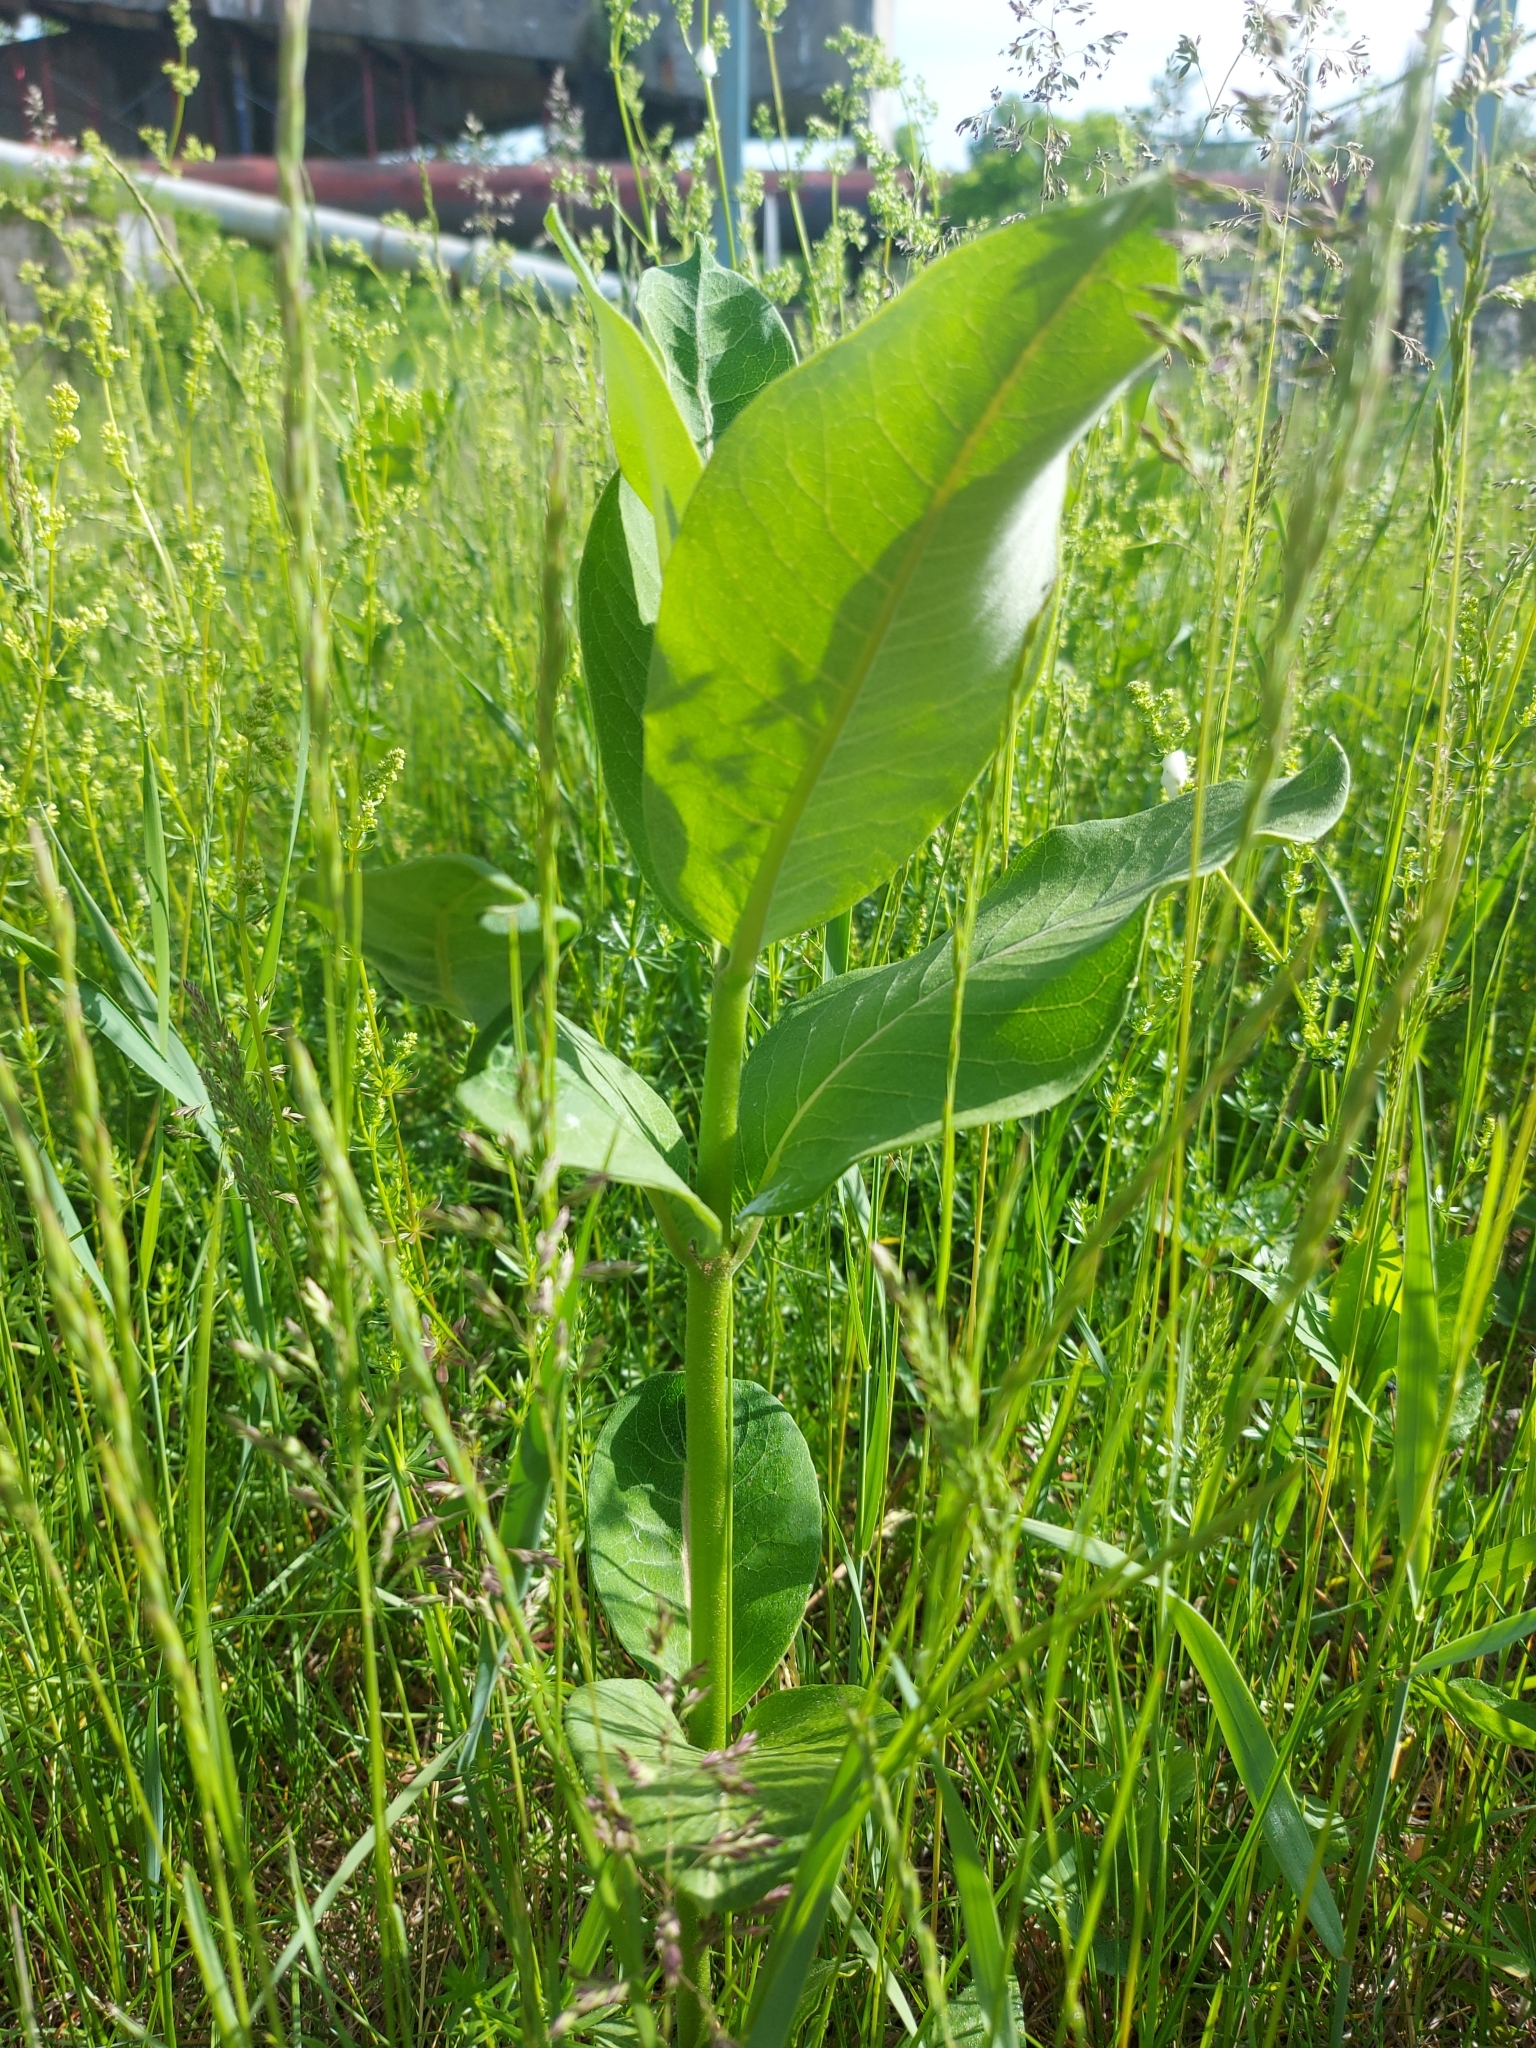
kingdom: Plantae
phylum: Tracheophyta
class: Magnoliopsida
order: Gentianales
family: Apocynaceae
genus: Asclepias
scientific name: Asclepias syriaca
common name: Common milkweed
